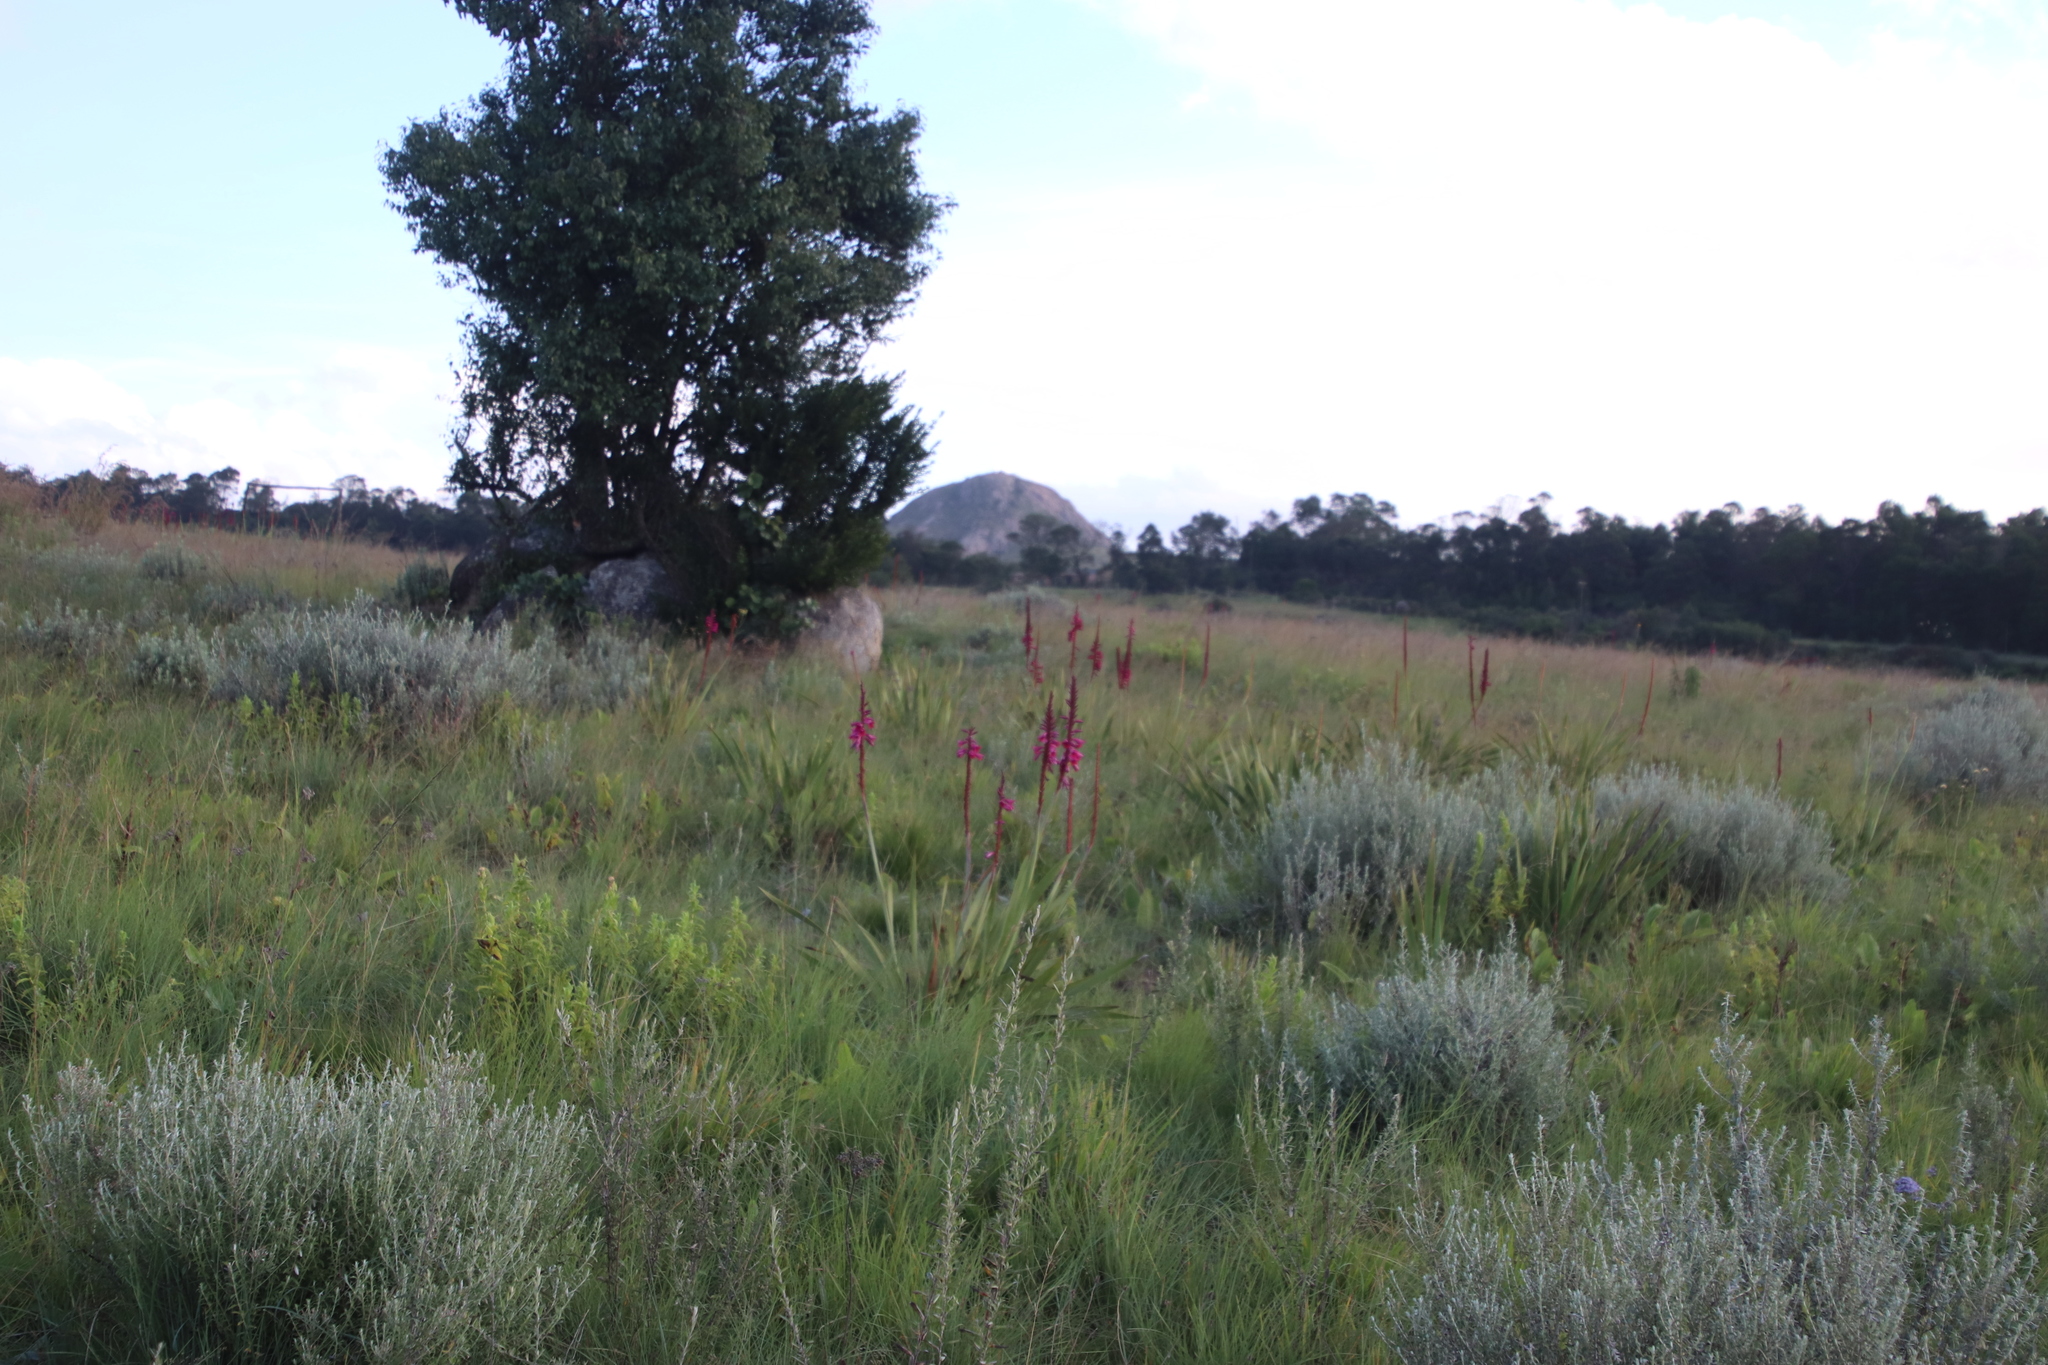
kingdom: Plantae
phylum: Tracheophyta
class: Liliopsida
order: Asparagales
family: Iridaceae
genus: Watsonia
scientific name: Watsonia pulchra
